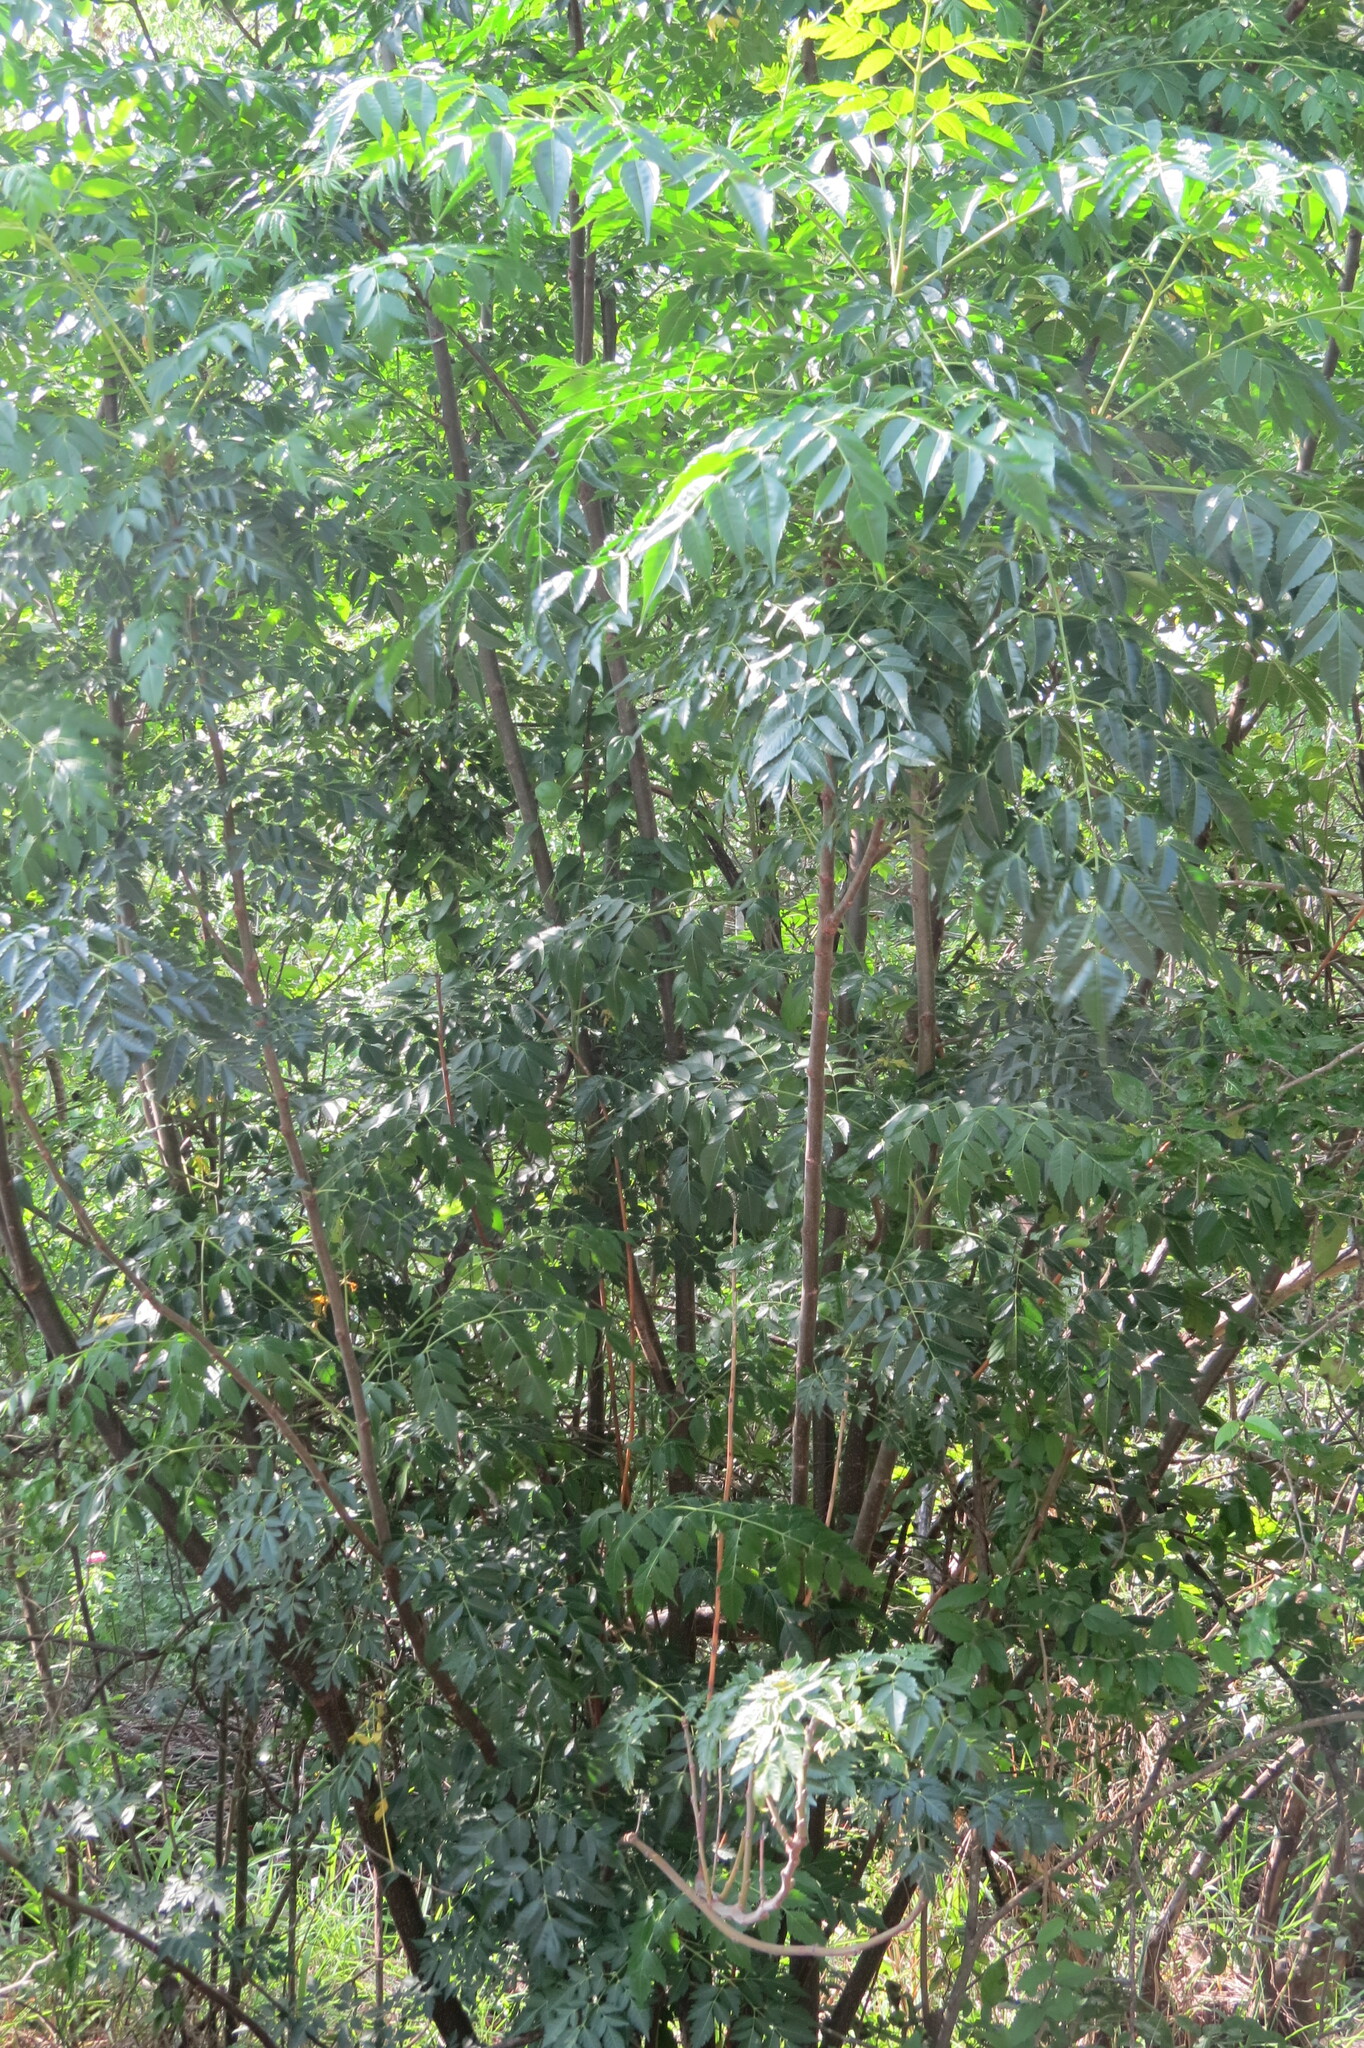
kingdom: Plantae
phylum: Tracheophyta
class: Magnoliopsida
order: Sapindales
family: Meliaceae
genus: Melia
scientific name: Melia azedarach
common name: Chinaberrytree
